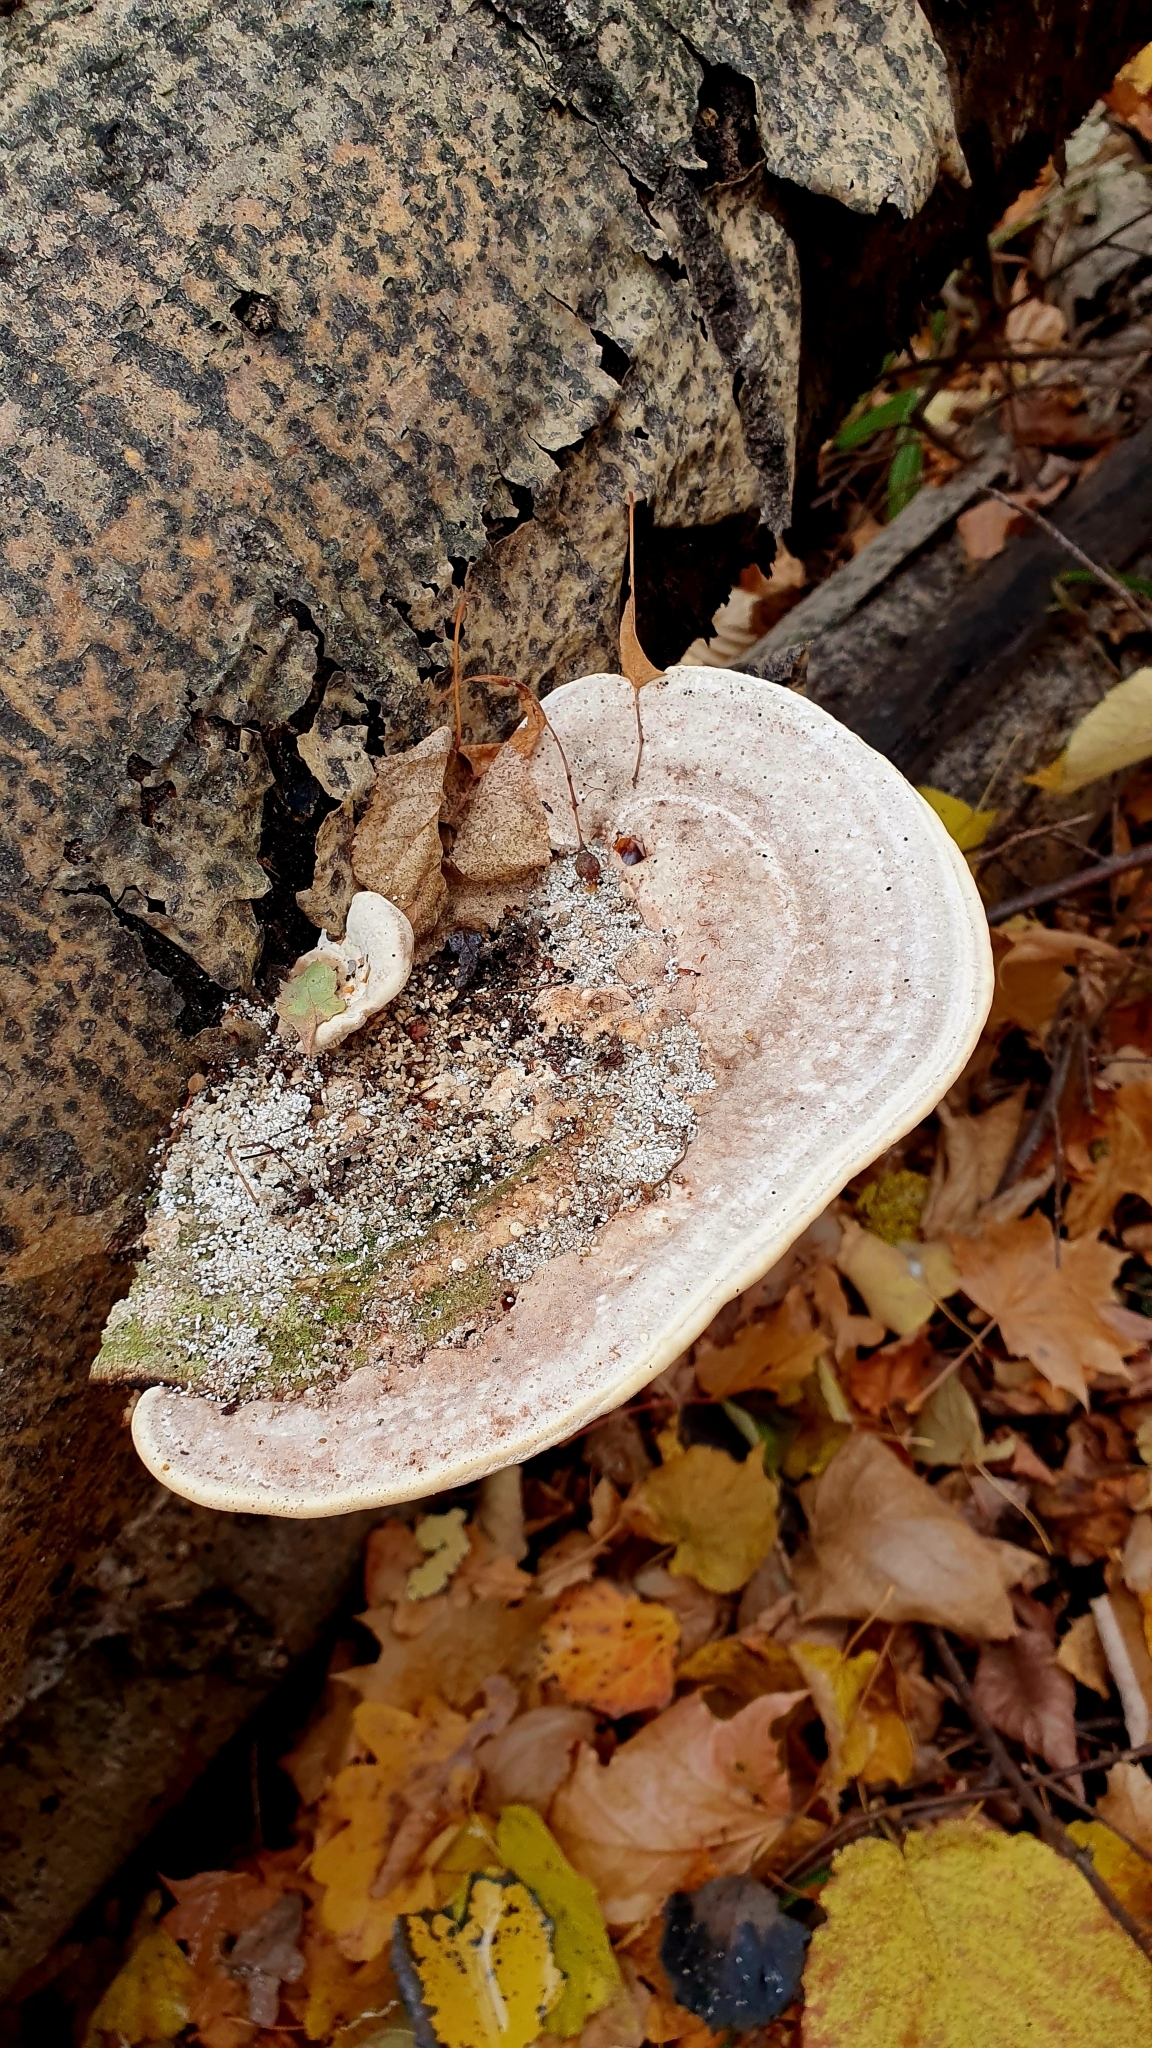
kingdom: Fungi
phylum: Basidiomycota
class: Agaricomycetes
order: Polyporales
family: Polyporaceae
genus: Trametes
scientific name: Trametes gibbosa
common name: Lumpy bracket
